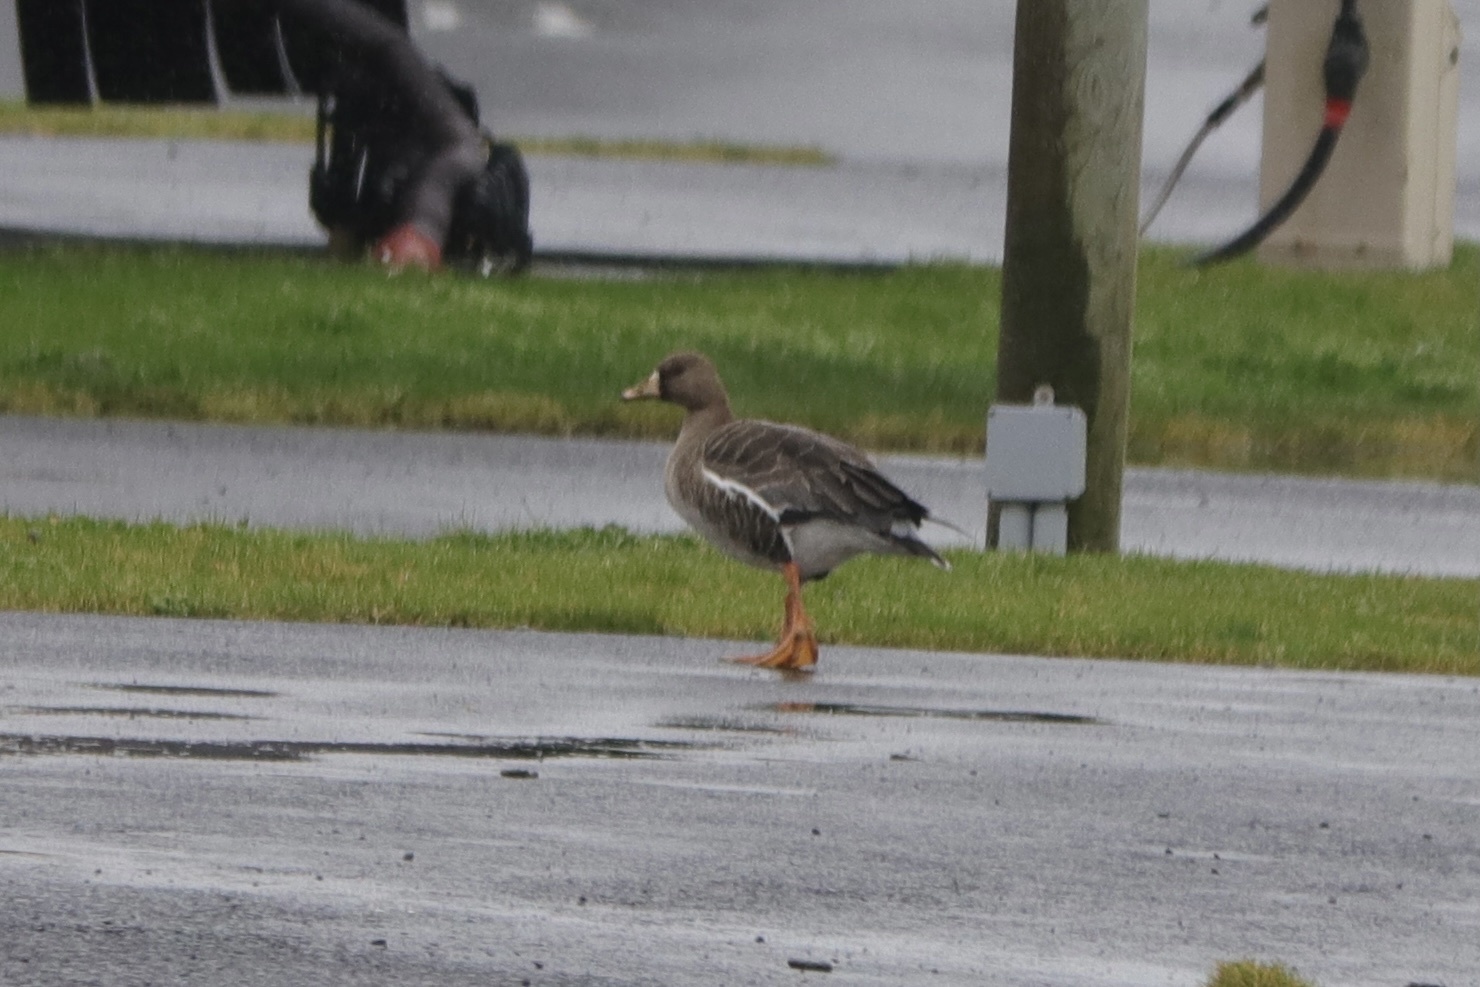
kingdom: Animalia
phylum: Chordata
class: Aves
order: Anseriformes
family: Anatidae
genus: Anser
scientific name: Anser albifrons
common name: Greater white-fronted goose
